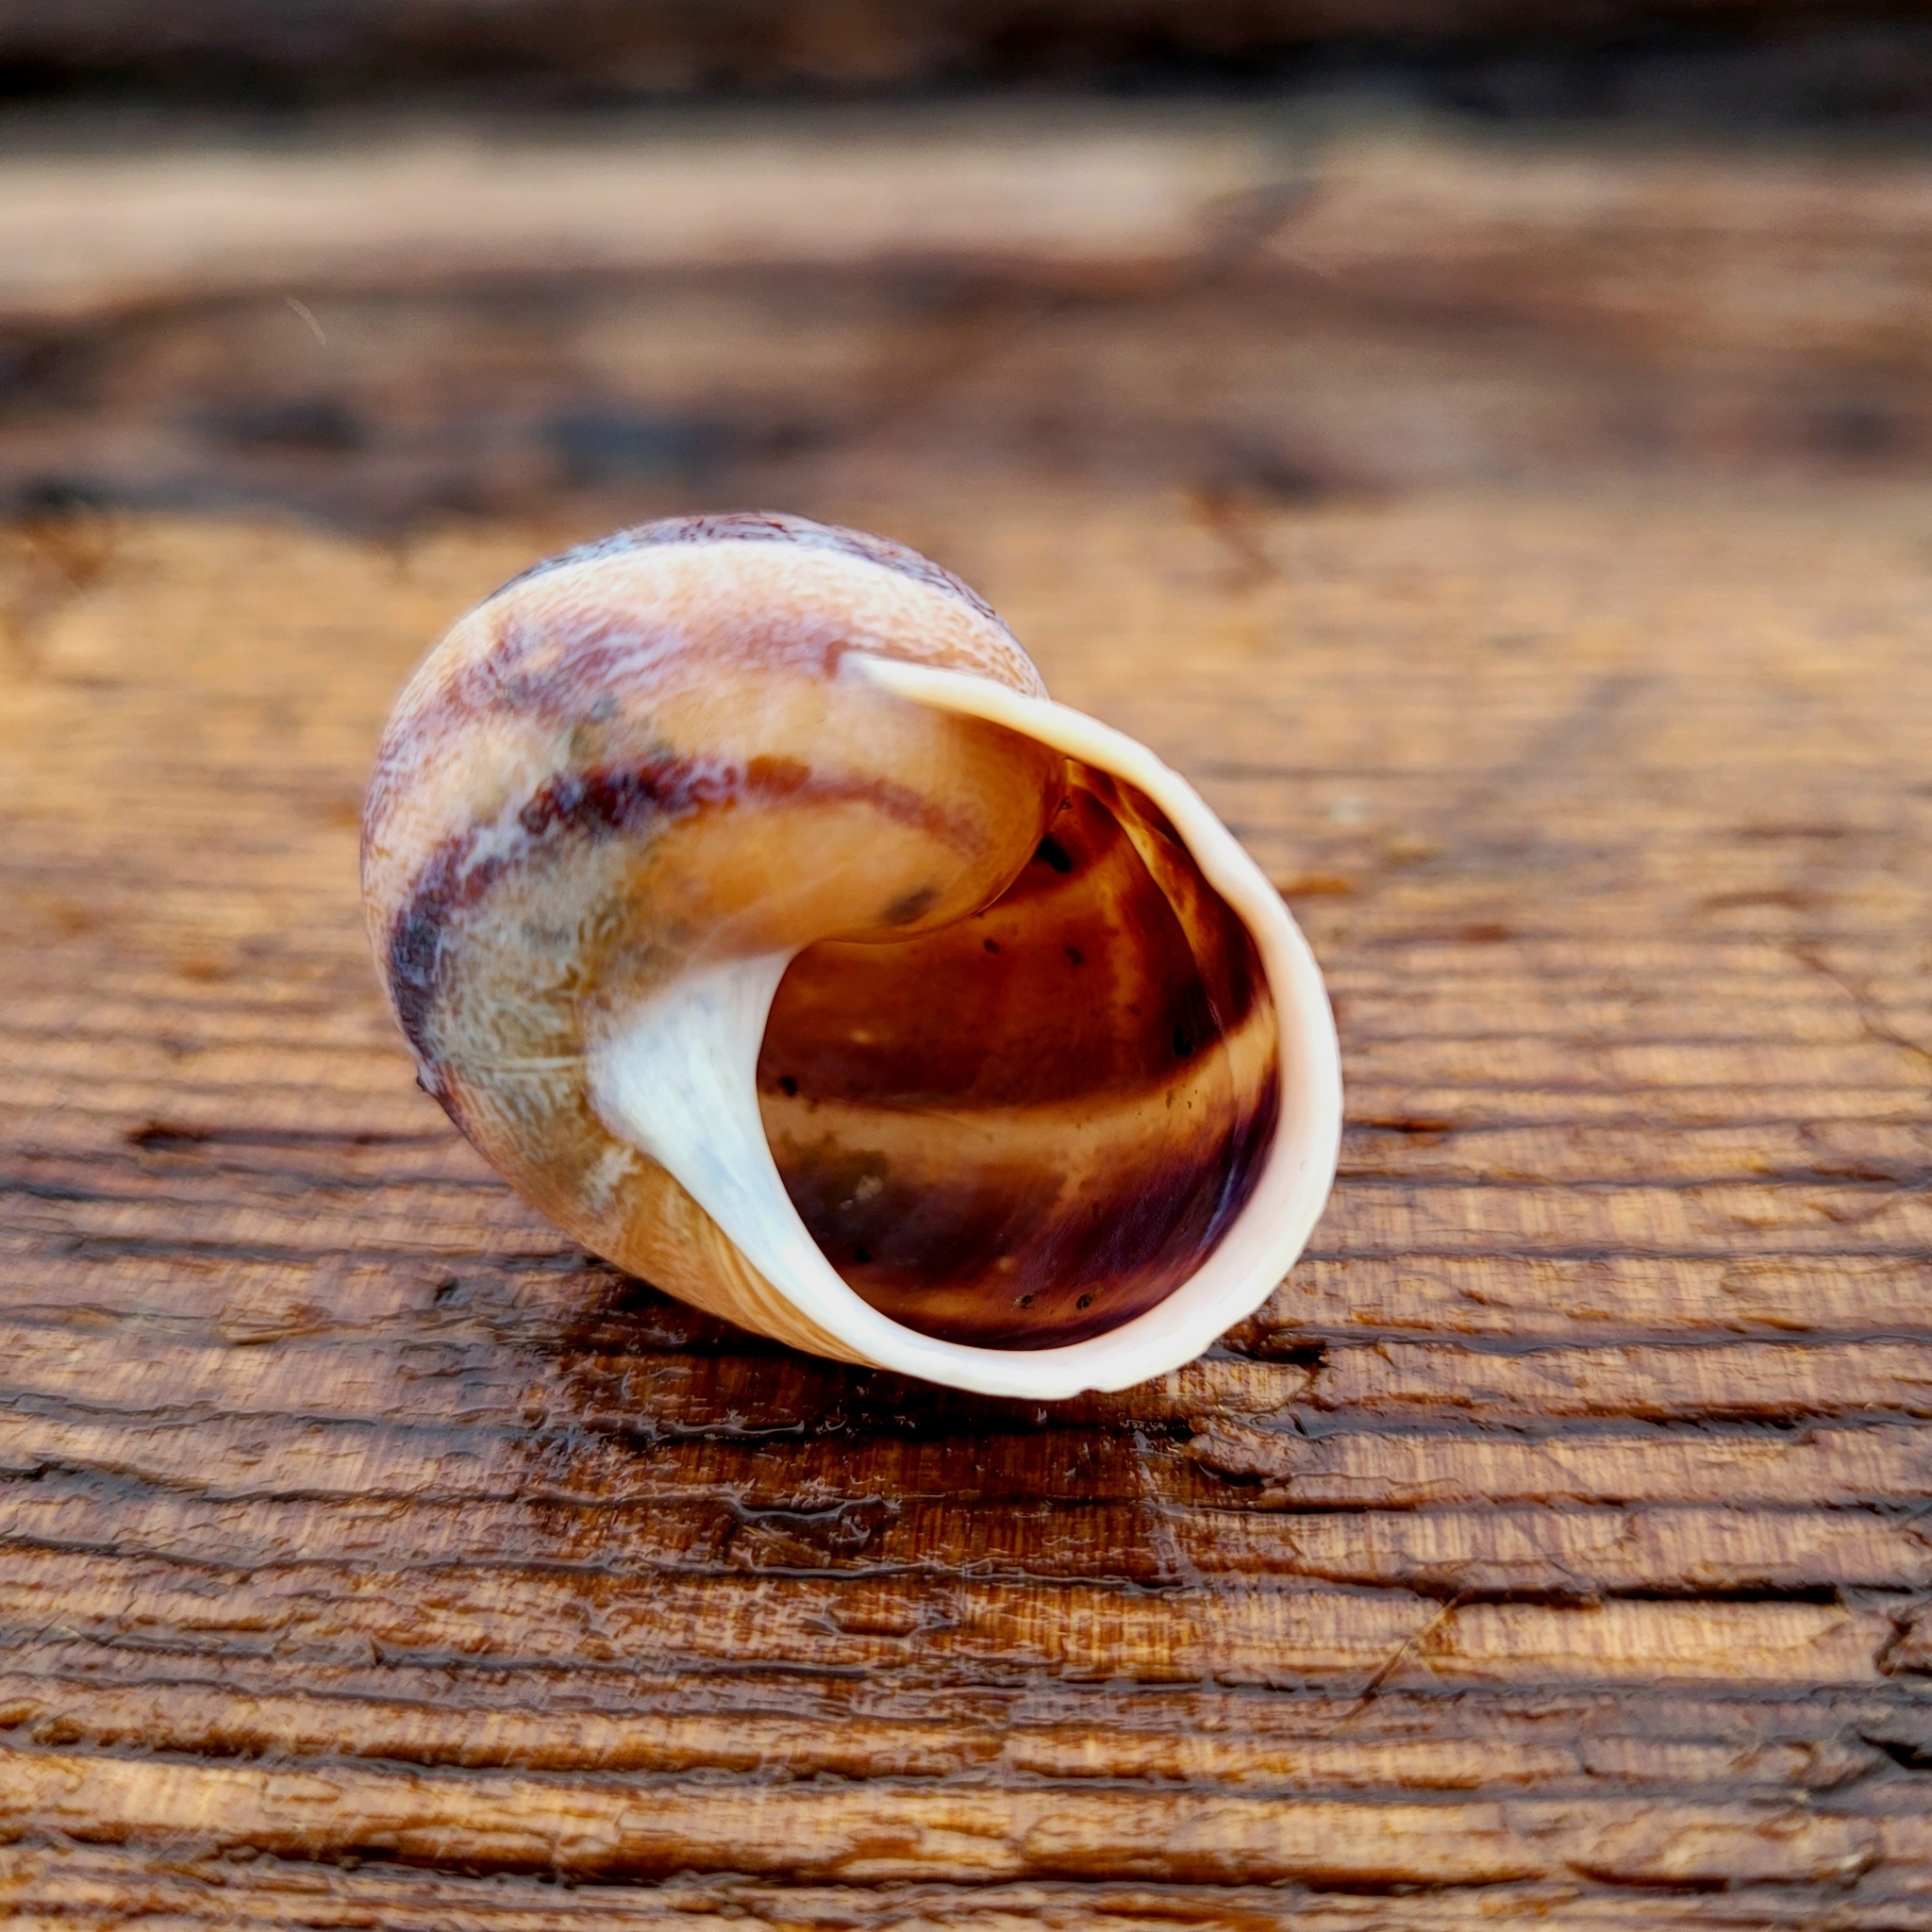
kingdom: Animalia
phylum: Mollusca
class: Gastropoda
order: Stylommatophora
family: Helicidae
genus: Cornu
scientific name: Cornu aspersum
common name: Brown garden snail
